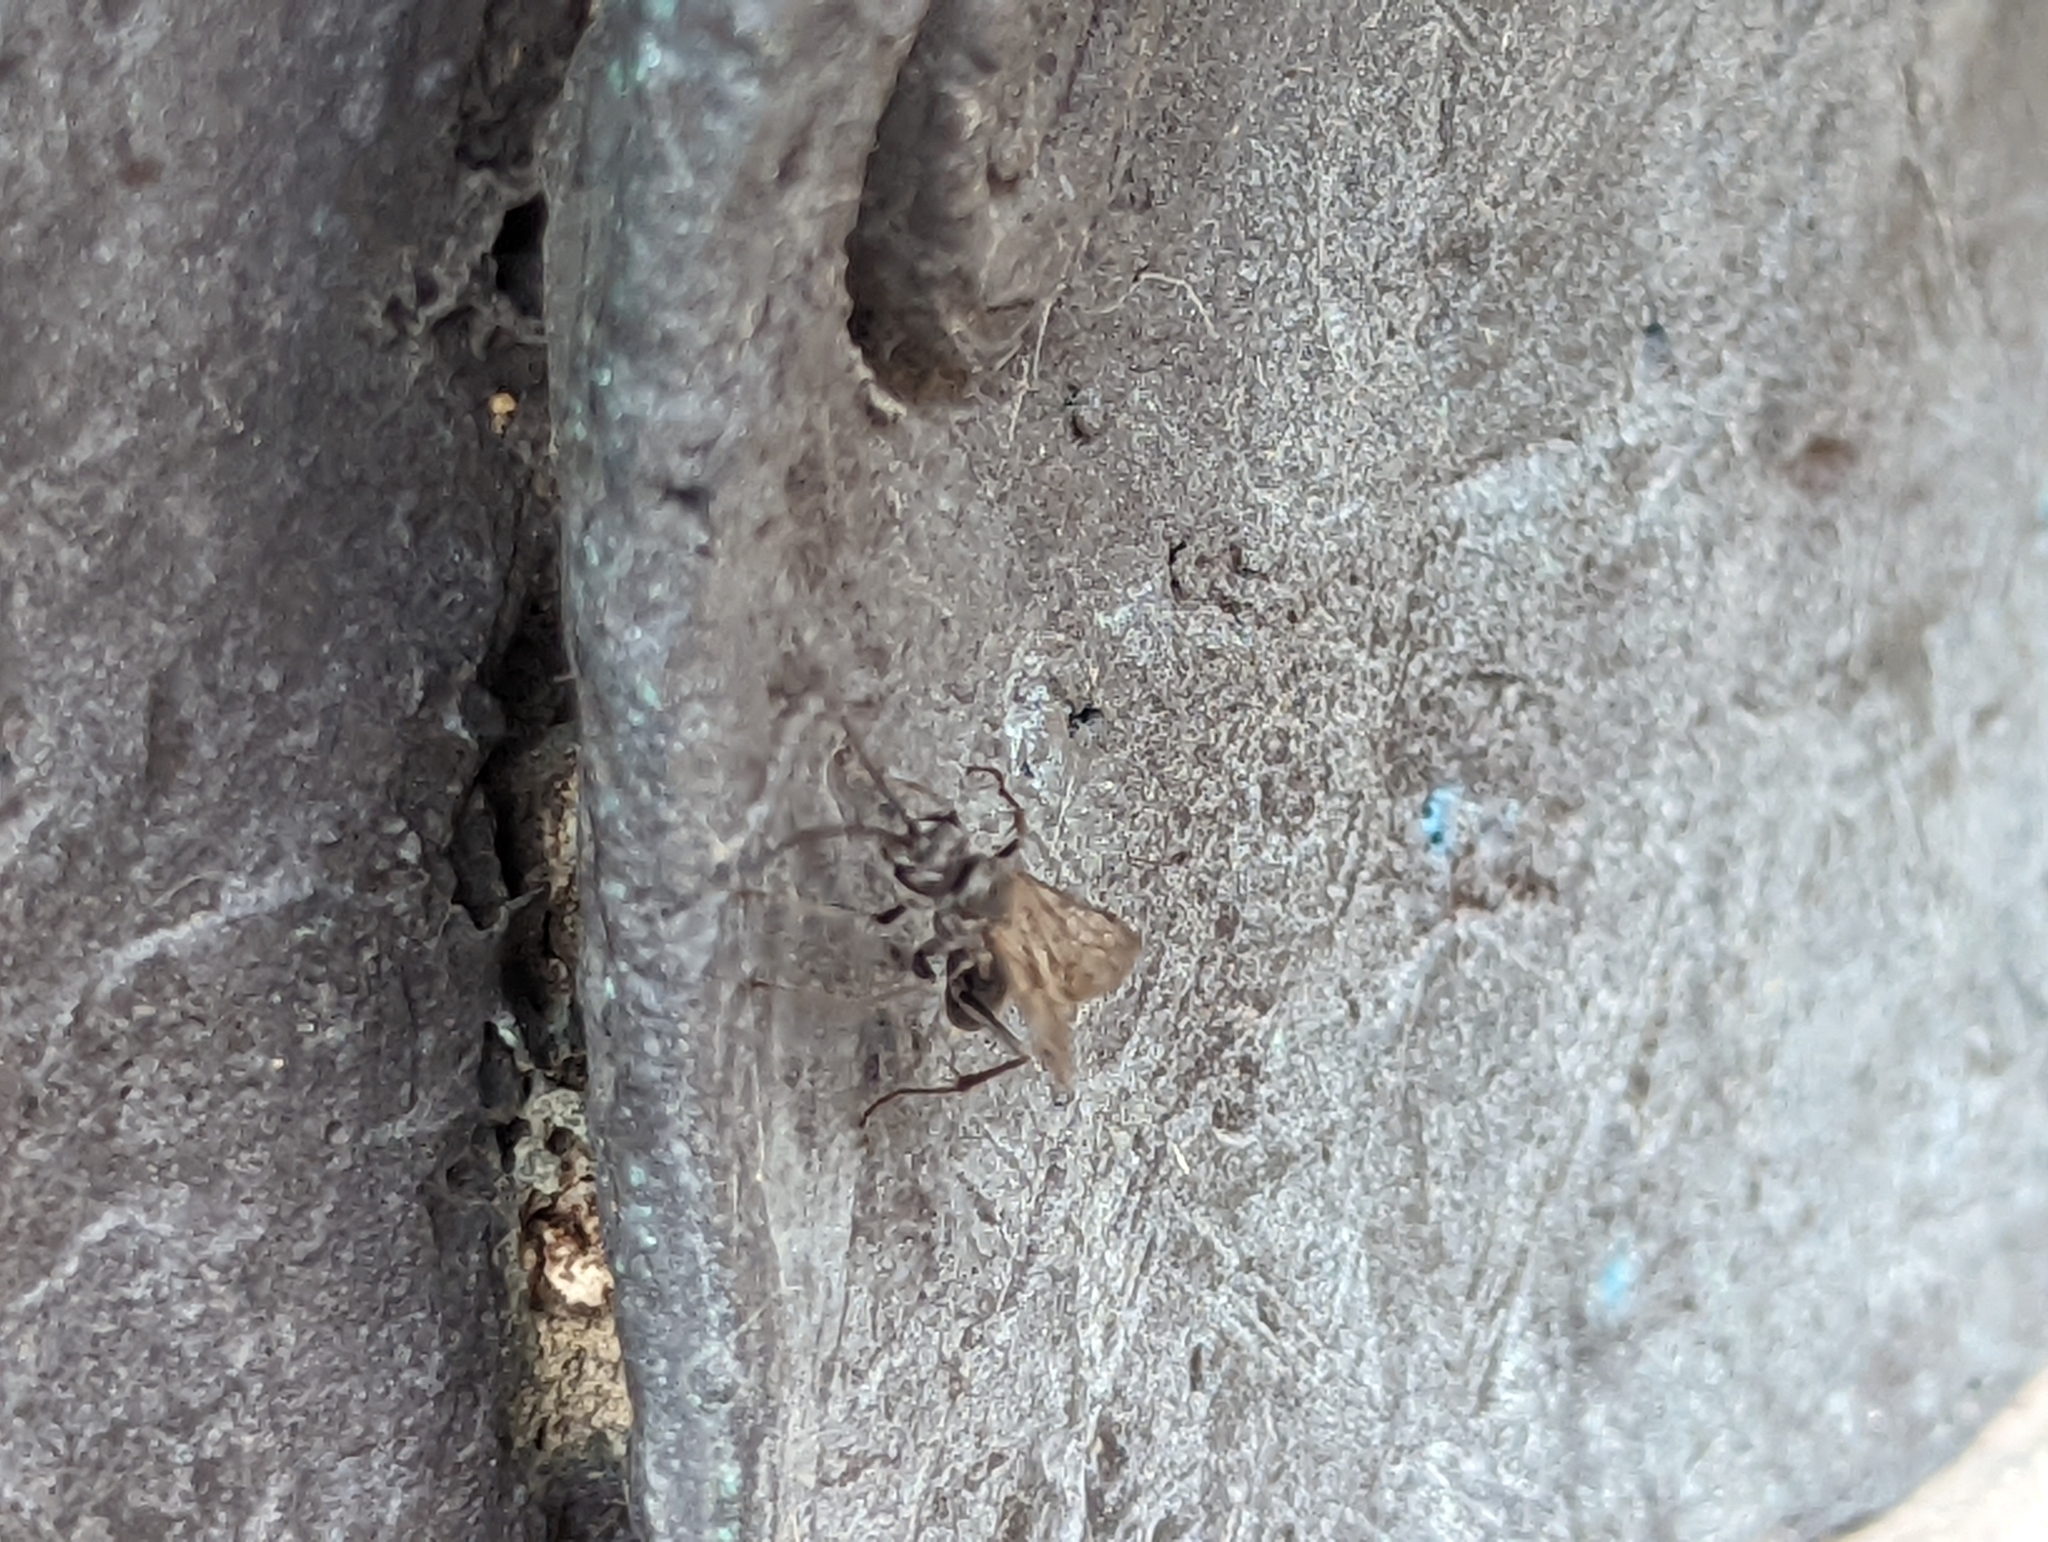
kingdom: Animalia
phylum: Arthropoda
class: Insecta
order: Hymenoptera
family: Pompilidae
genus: Auplopus
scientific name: Auplopus carbonarius
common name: Spider wasp
